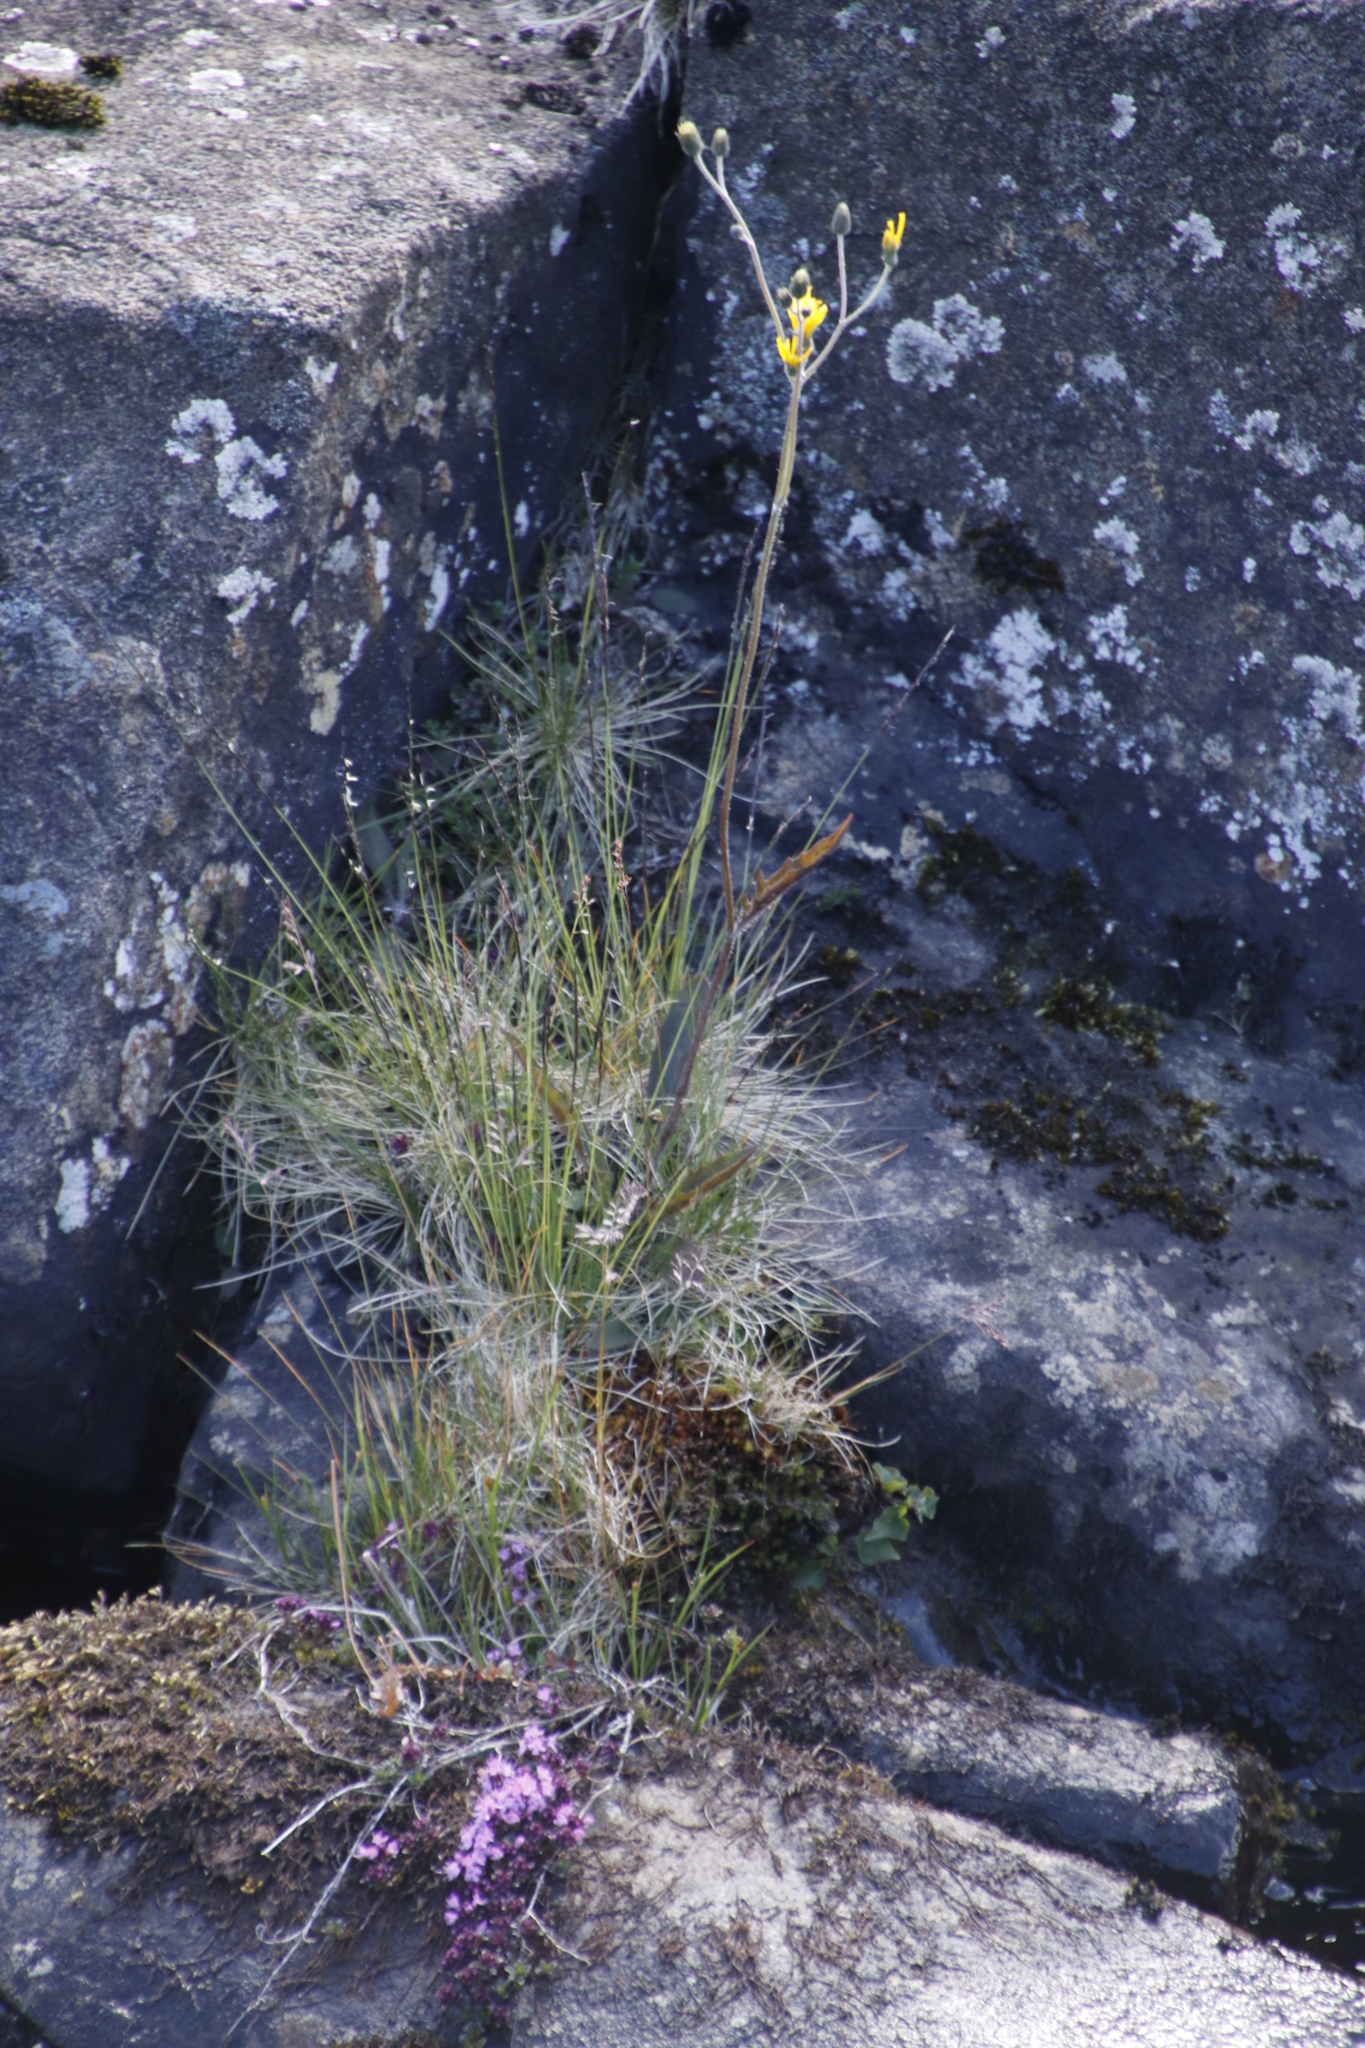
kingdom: Plantae
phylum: Tracheophyta
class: Magnoliopsida
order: Asterales
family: Asteraceae
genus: Solidago
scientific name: Solidago virgaurea
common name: Goldenrod
